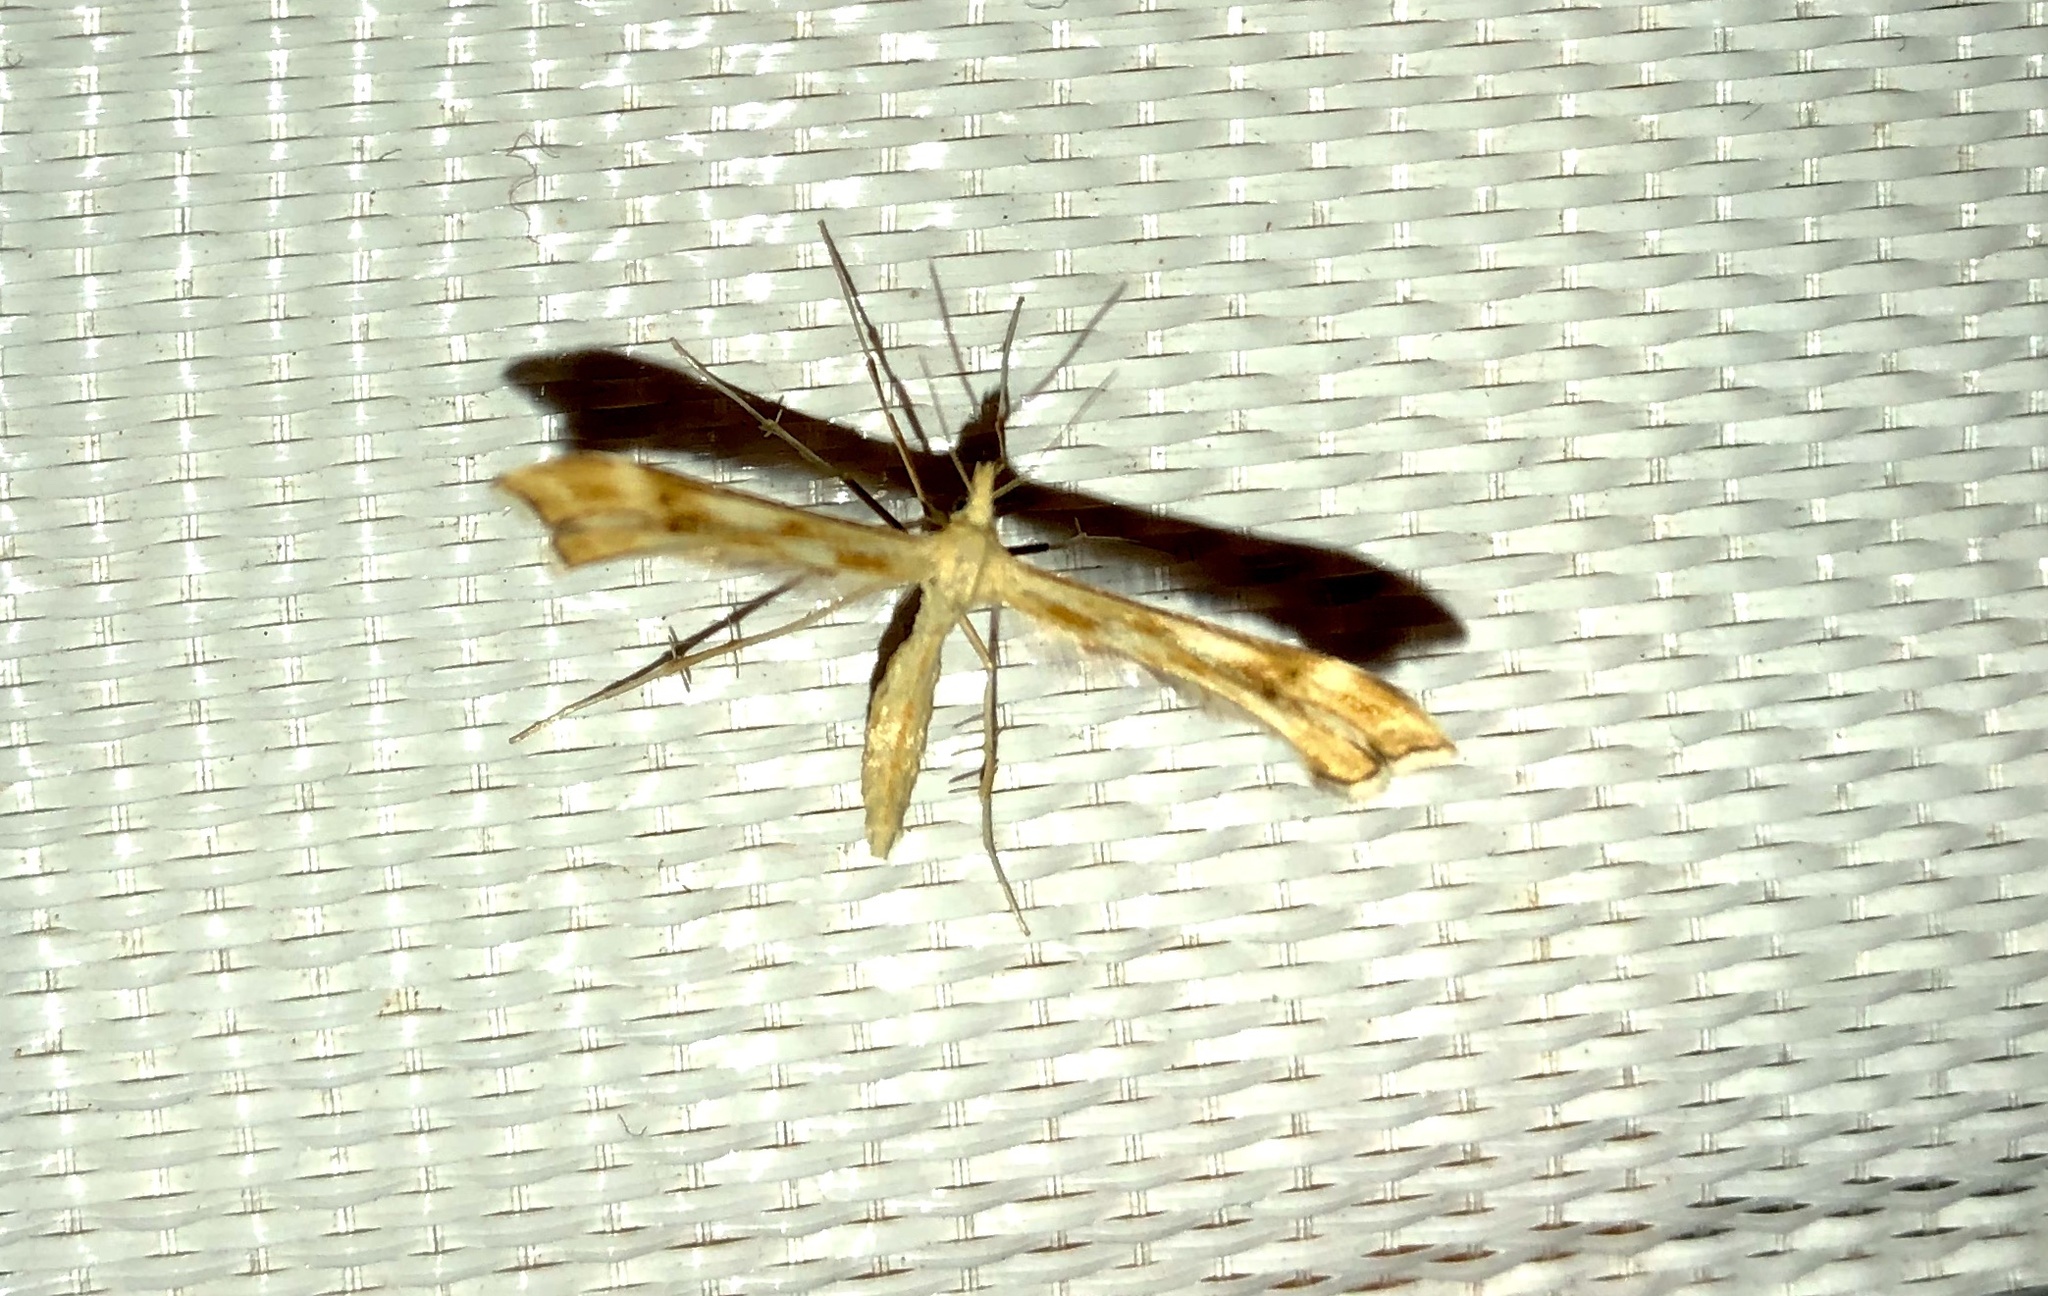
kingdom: Animalia
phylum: Arthropoda
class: Insecta
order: Lepidoptera
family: Pterophoridae
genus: Gillmeria
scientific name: Gillmeria pallidactyla
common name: Yarrow plume
